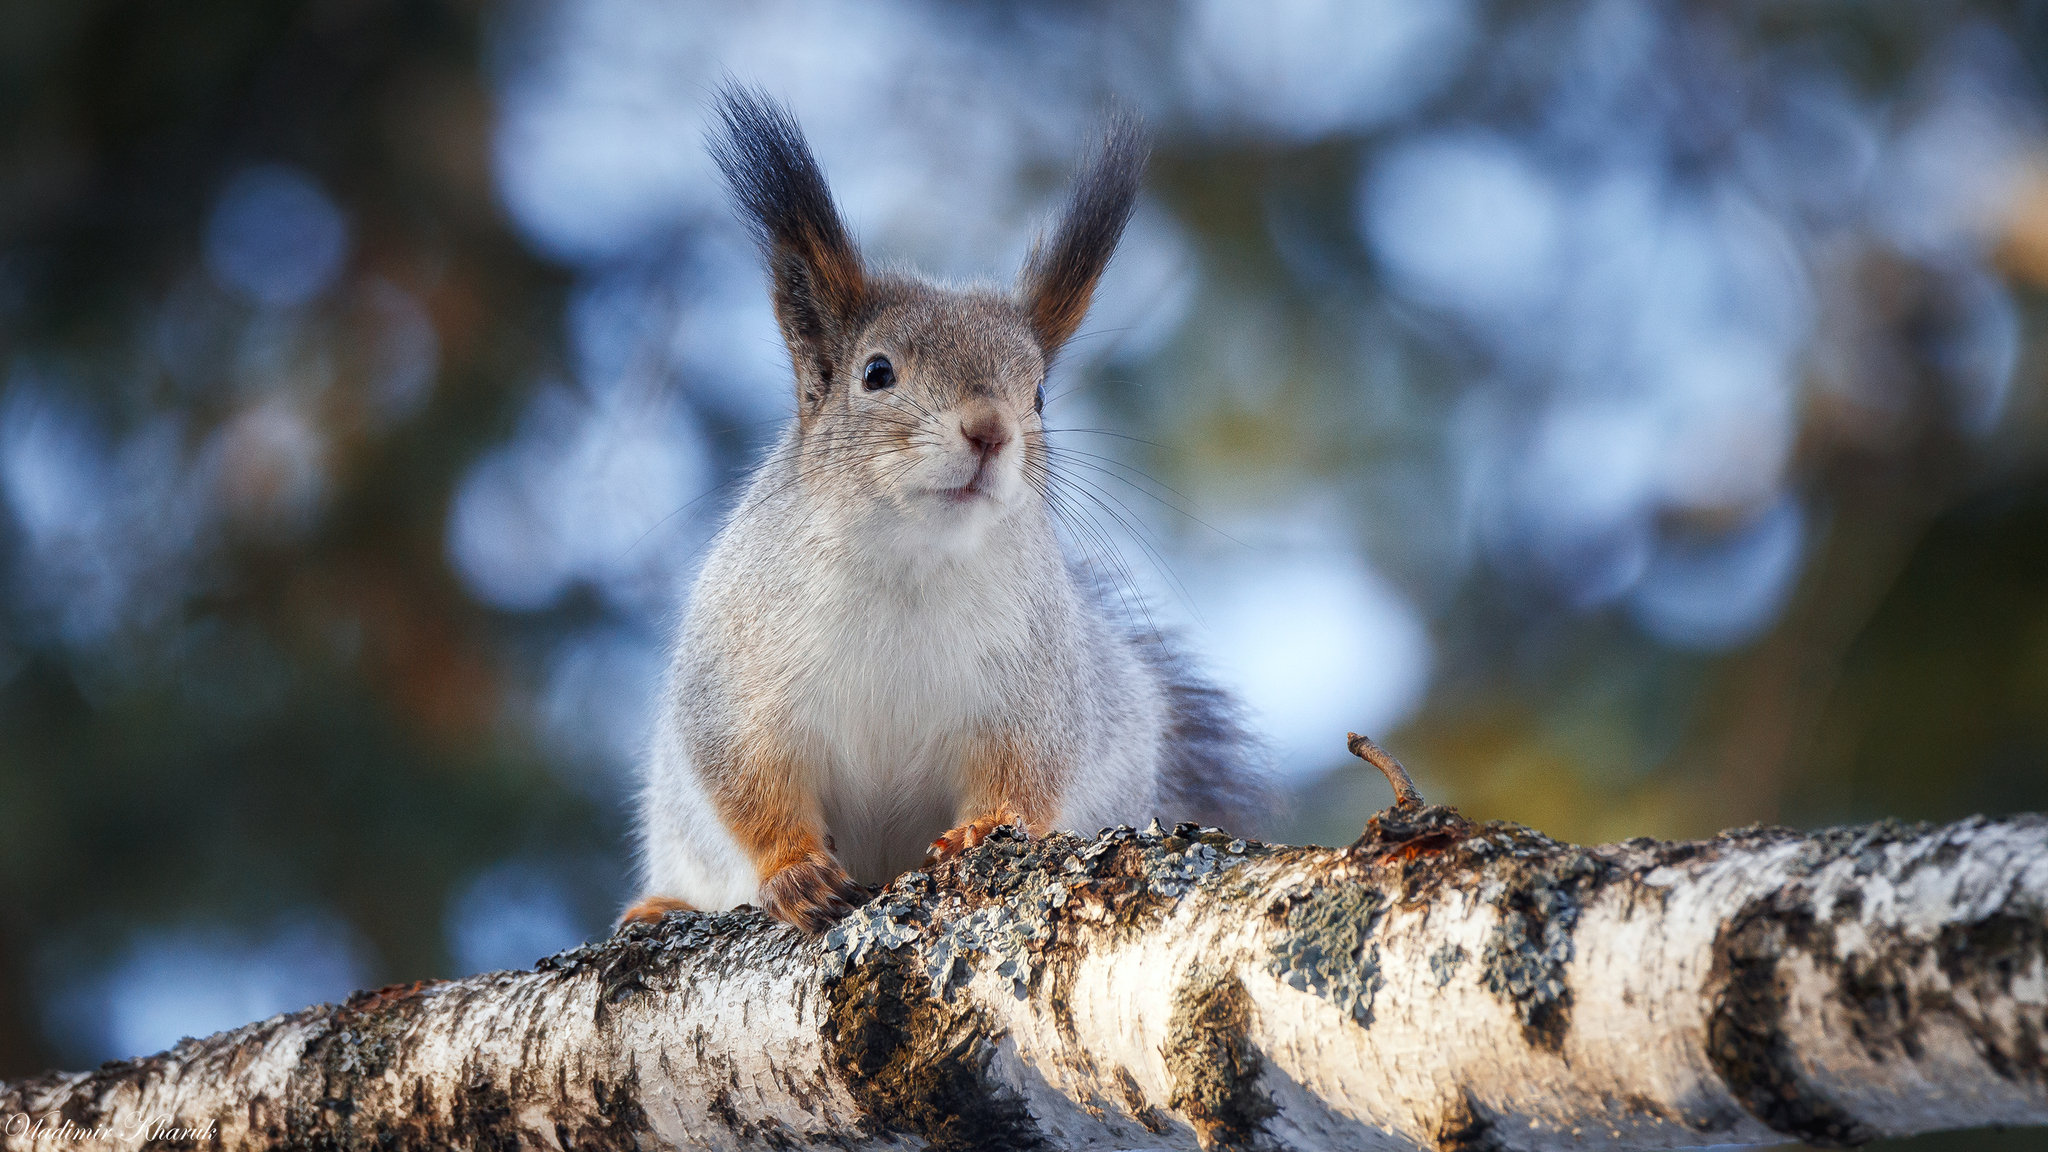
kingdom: Animalia
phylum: Chordata
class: Mammalia
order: Rodentia
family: Sciuridae
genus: Sciurus
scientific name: Sciurus vulgaris
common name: Eurasian red squirrel
